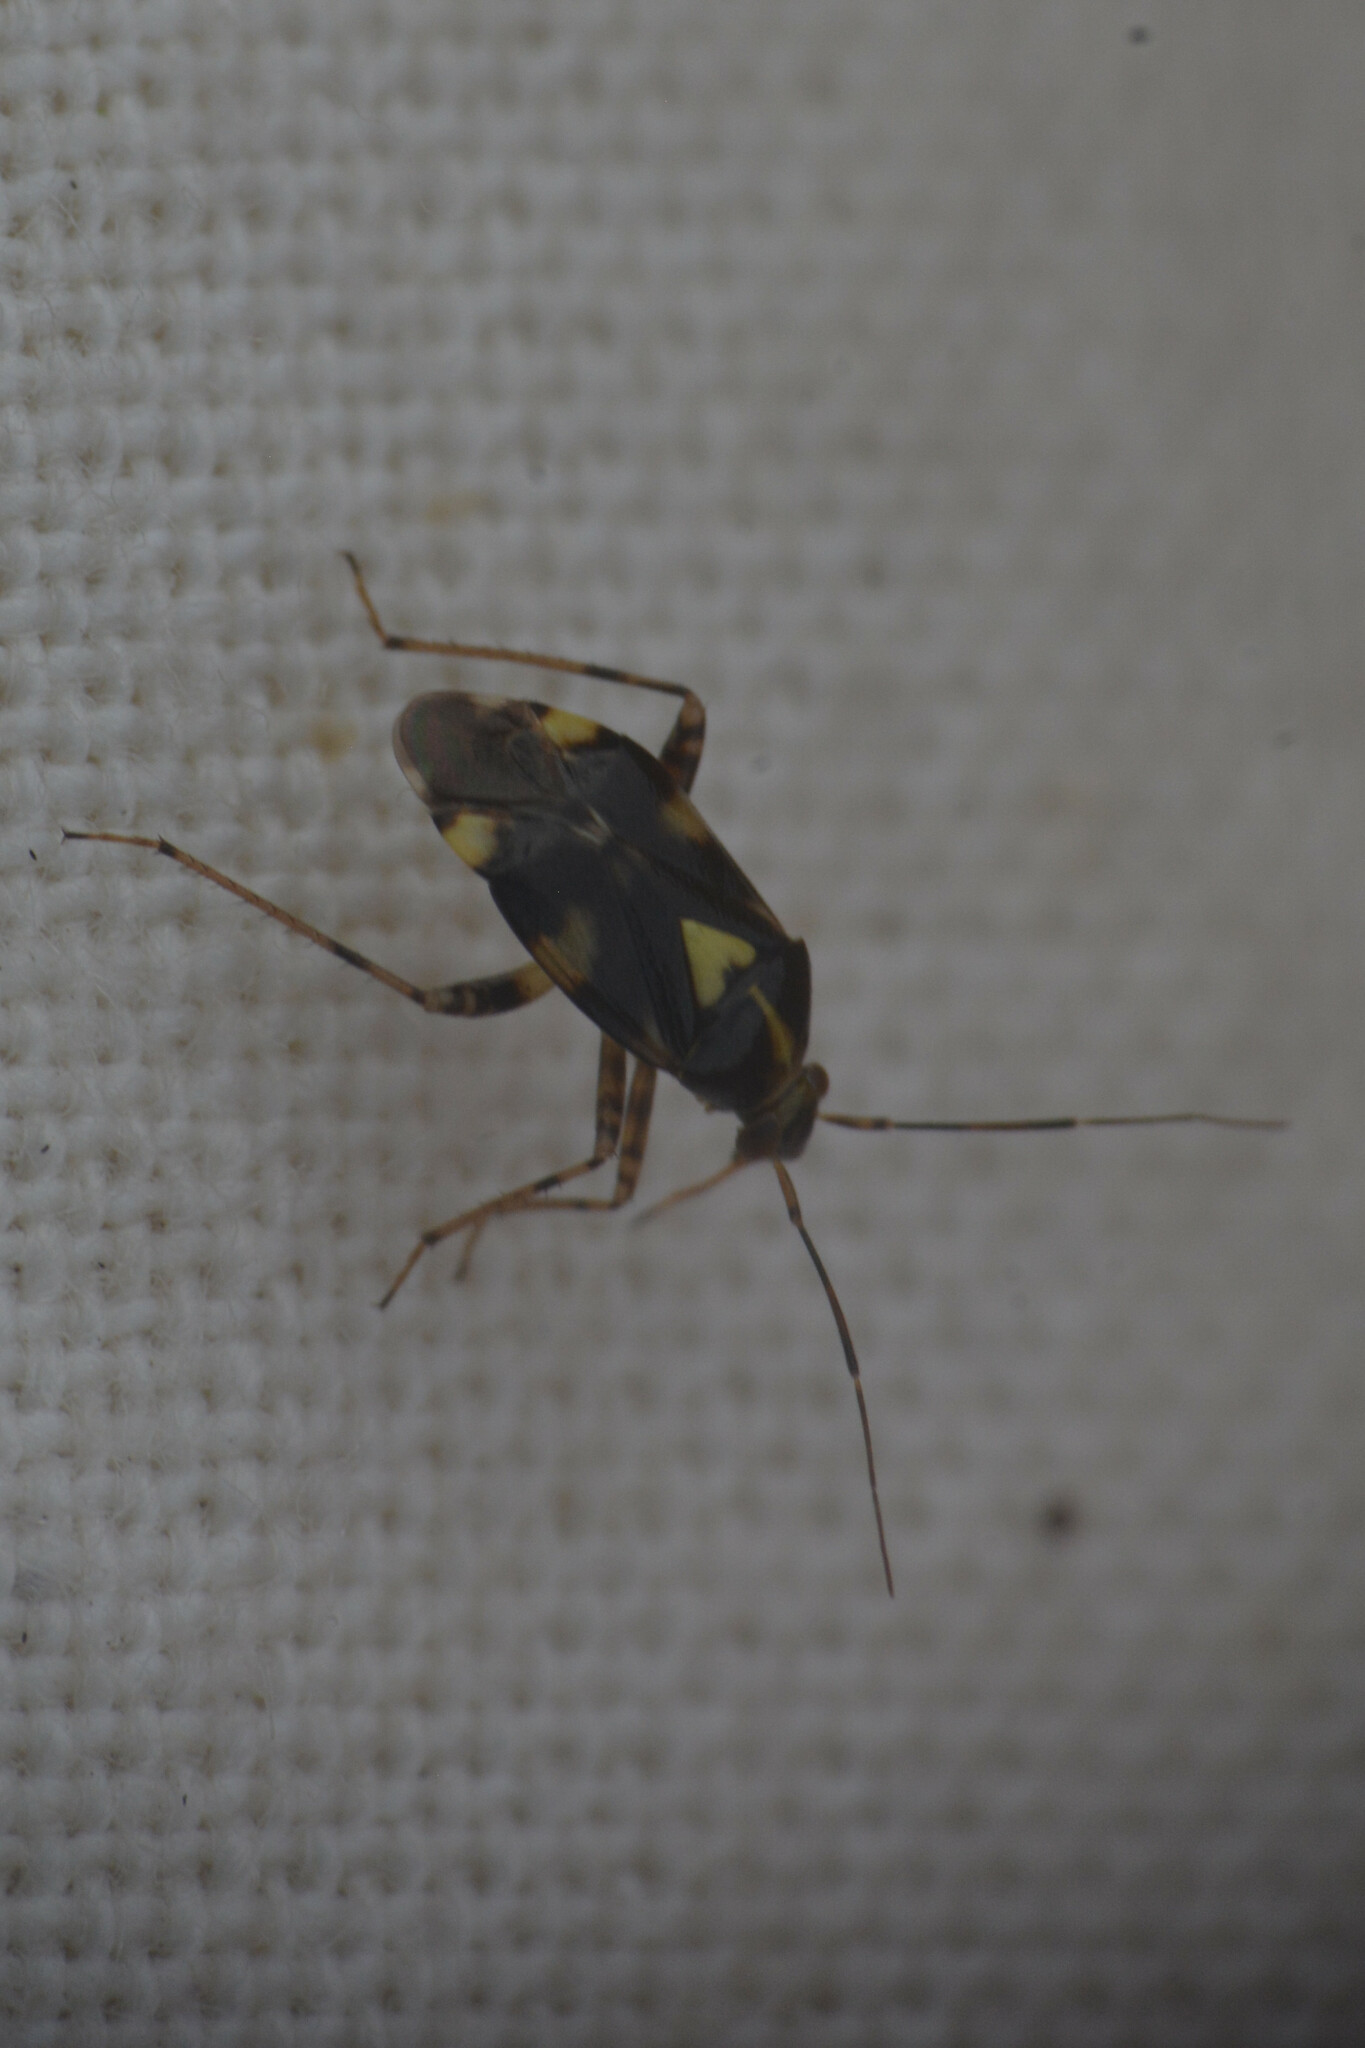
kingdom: Animalia
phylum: Arthropoda
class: Insecta
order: Hemiptera
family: Miridae
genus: Liocoris
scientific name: Liocoris tripustulatus
